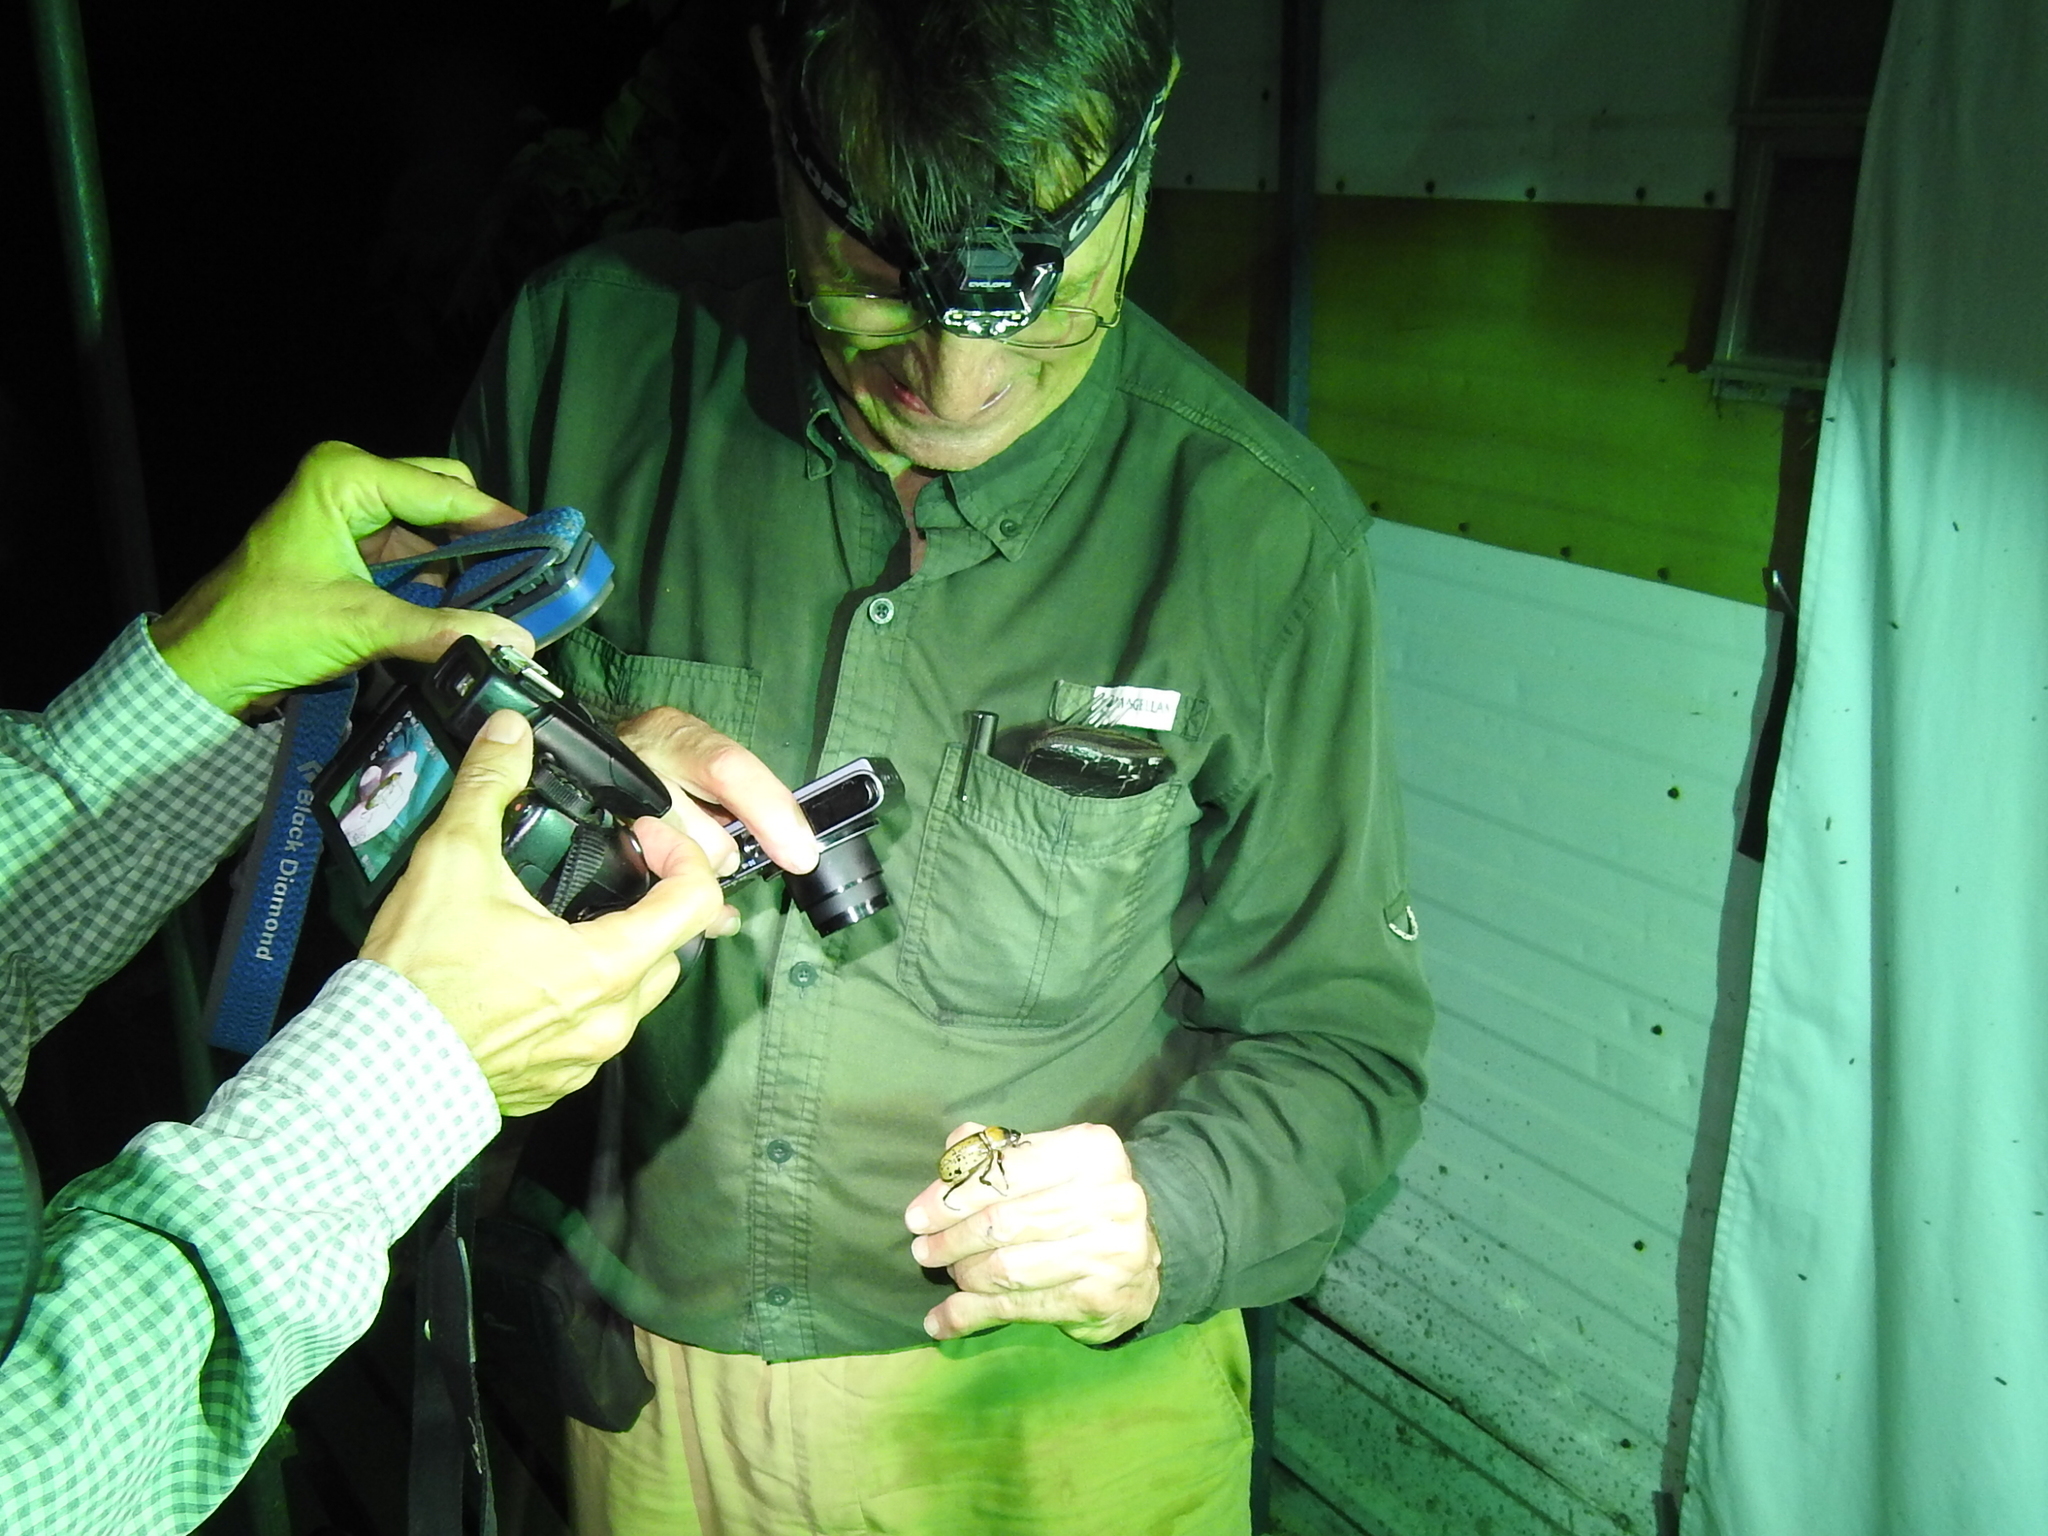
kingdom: Animalia
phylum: Arthropoda
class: Insecta
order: Coleoptera
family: Scarabaeidae
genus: Dynastes
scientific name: Dynastes tityus
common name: Eastern hercules beetle
